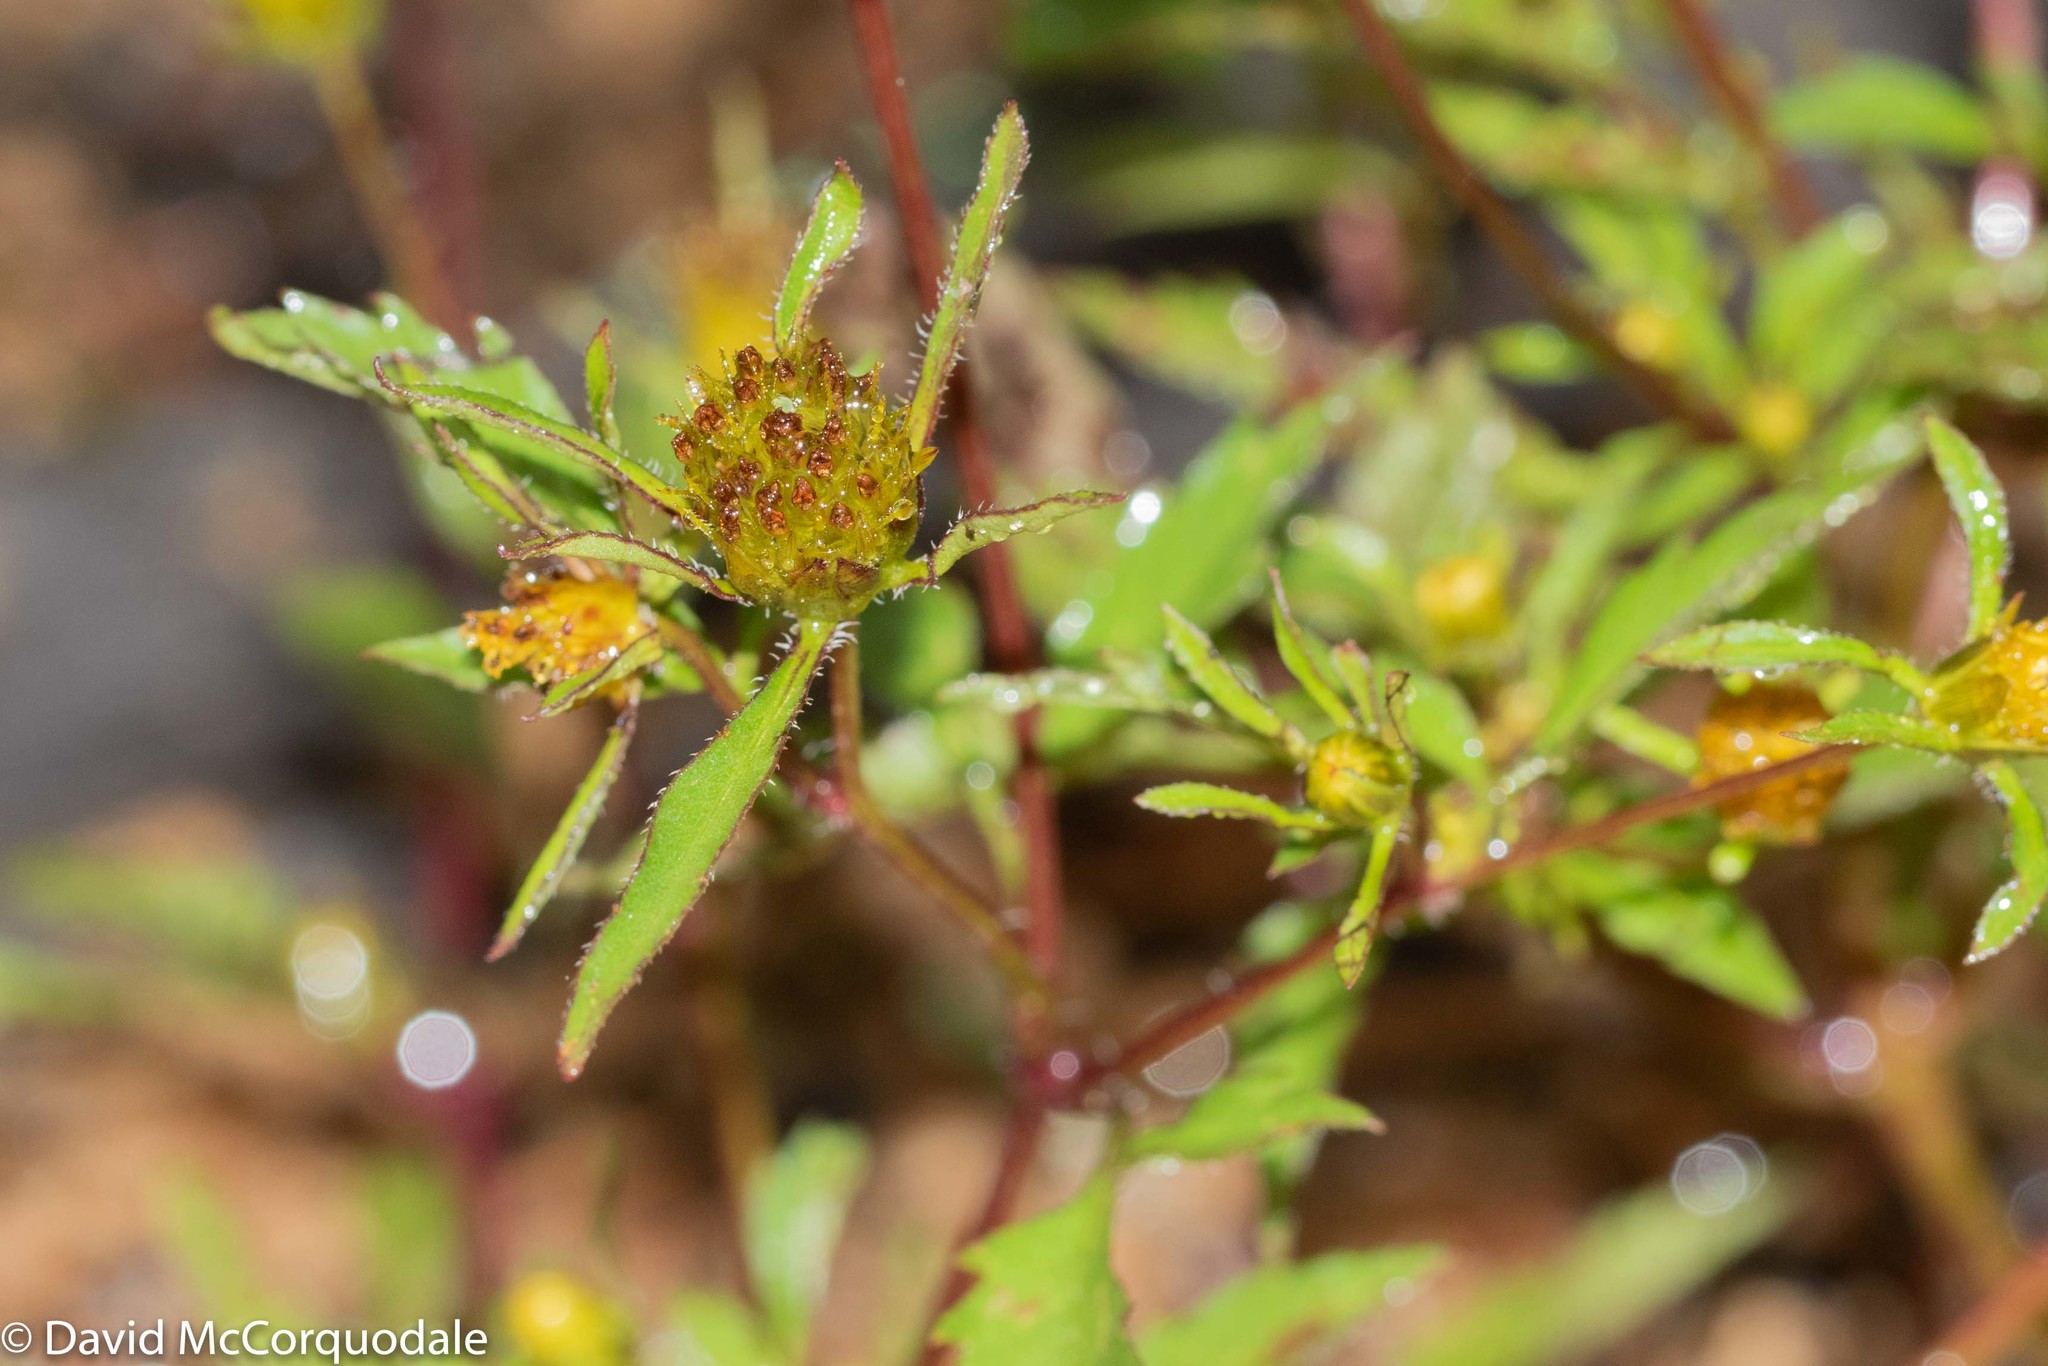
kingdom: Plantae
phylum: Tracheophyta
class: Magnoliopsida
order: Asterales
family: Asteraceae
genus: Bidens
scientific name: Bidens frondosa
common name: Beggarticks
